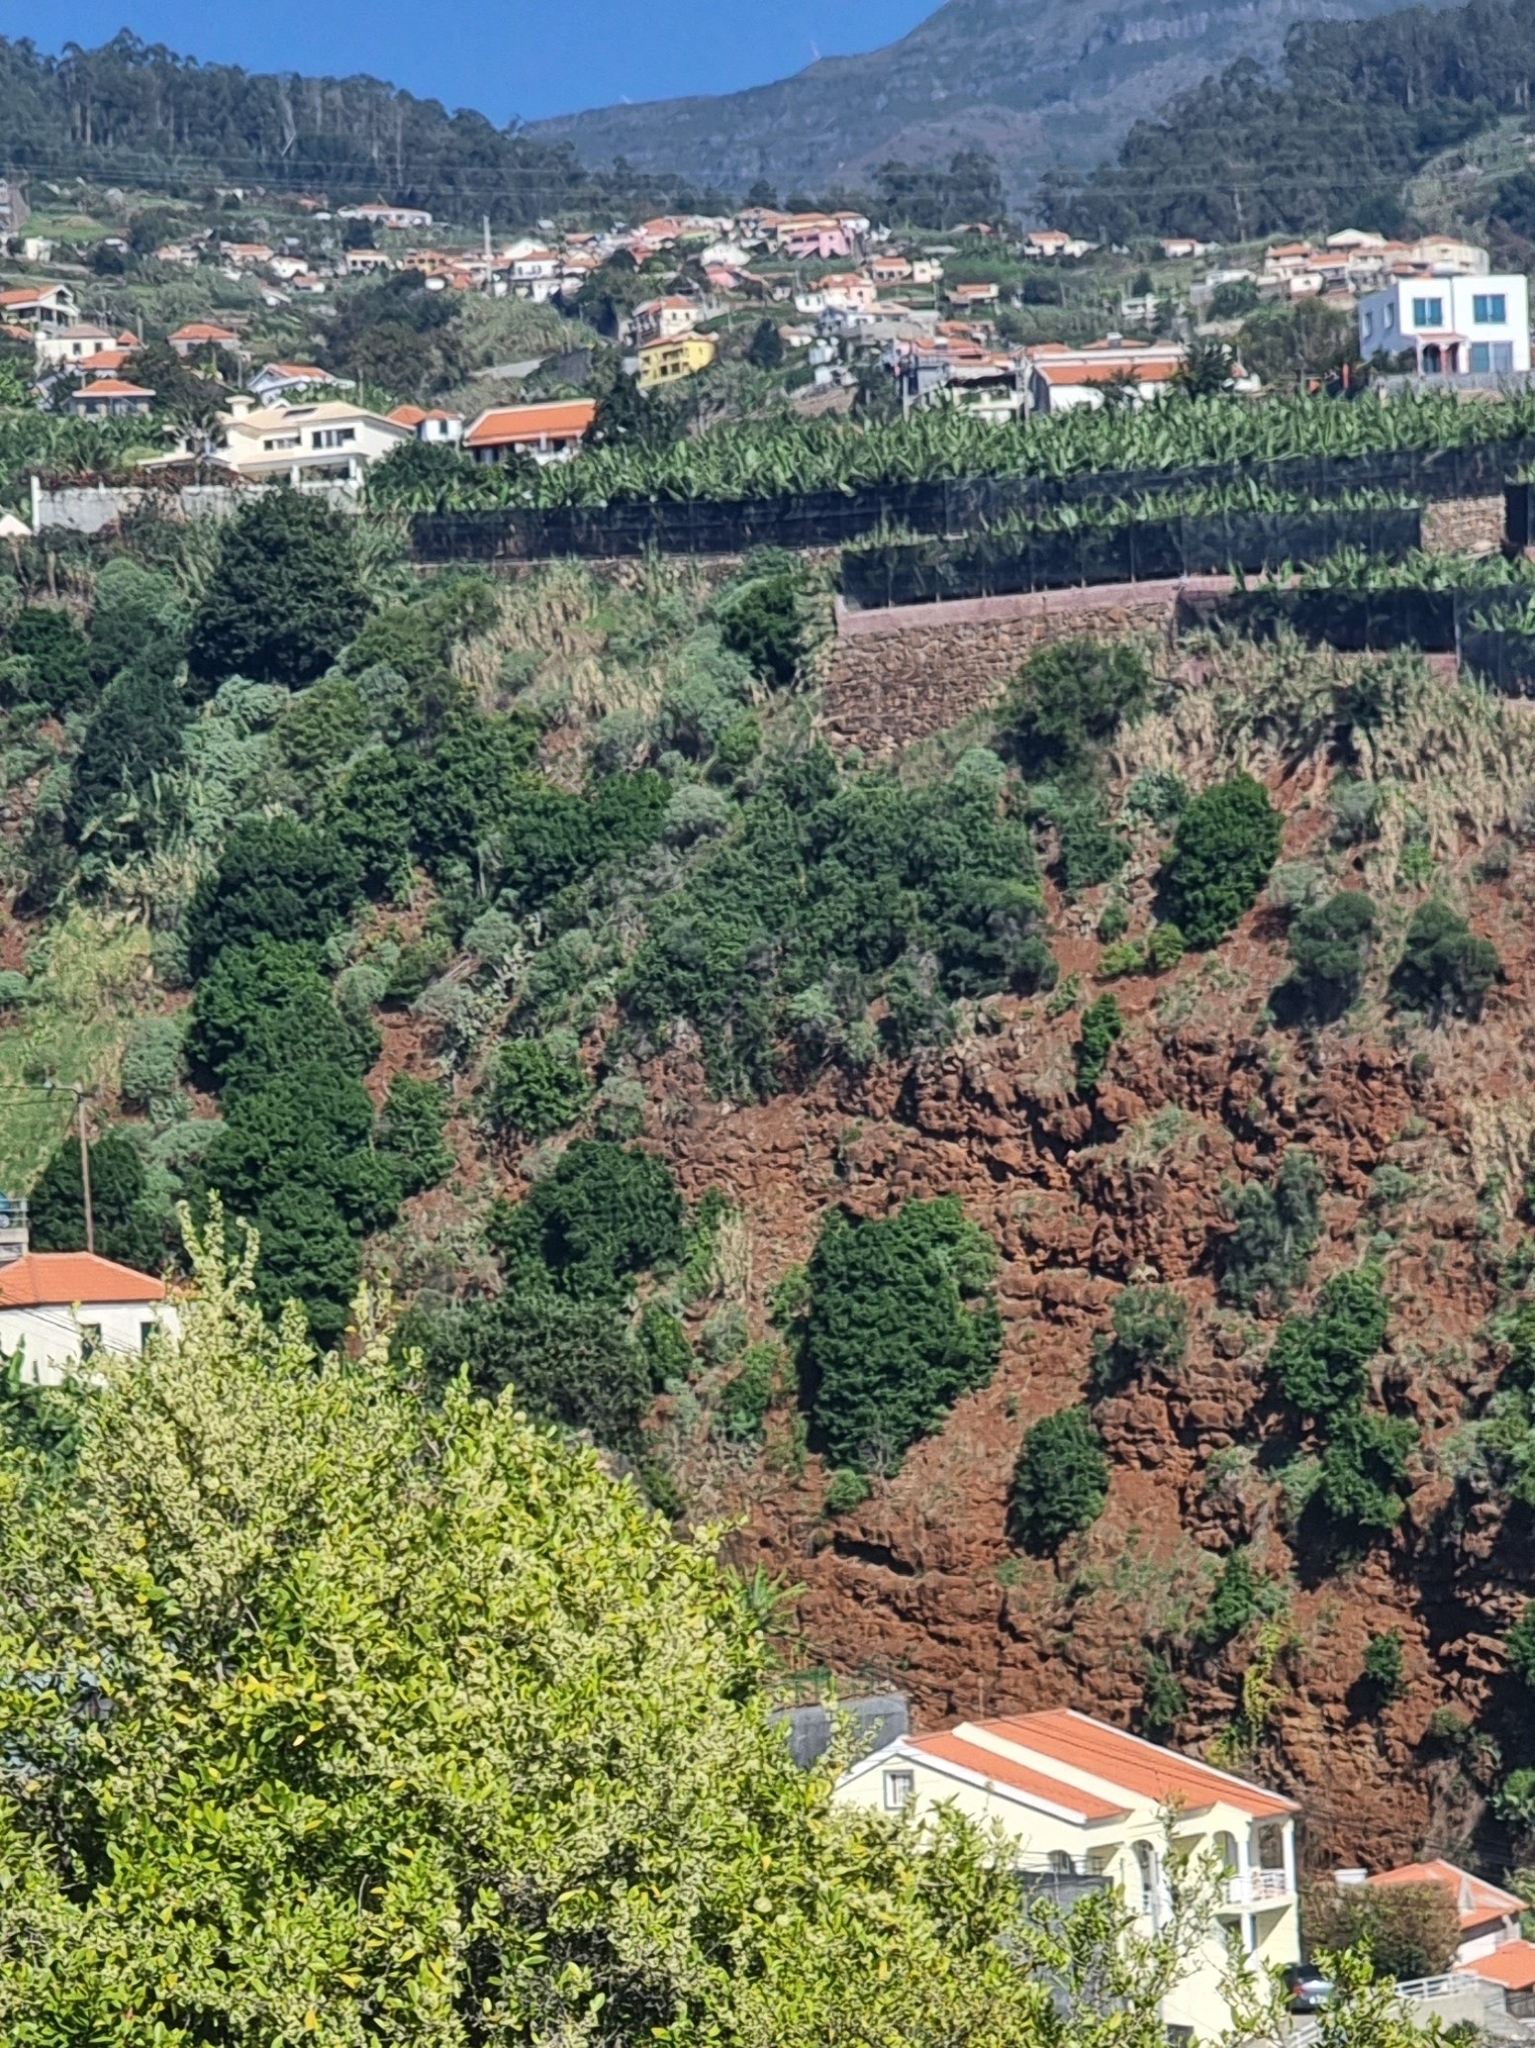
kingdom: Plantae
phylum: Tracheophyta
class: Magnoliopsida
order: Laurales
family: Lauraceae
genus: Apollonias
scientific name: Apollonias barbujana
